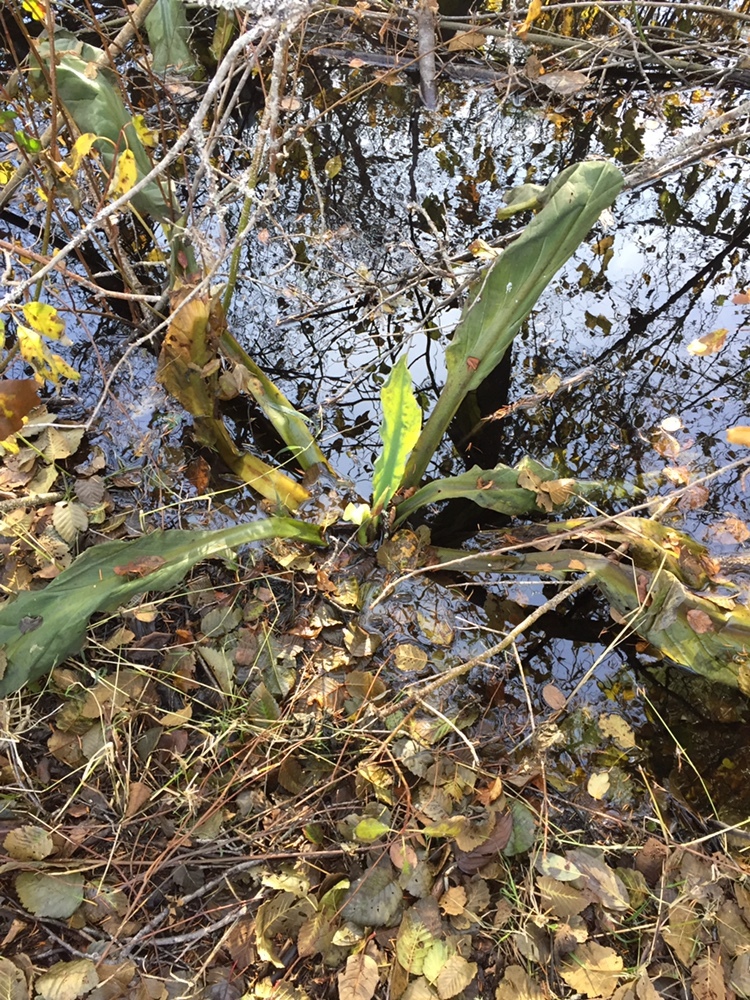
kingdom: Plantae
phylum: Tracheophyta
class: Liliopsida
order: Alismatales
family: Araceae
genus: Lysichiton
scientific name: Lysichiton americanus
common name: American skunk cabbage
